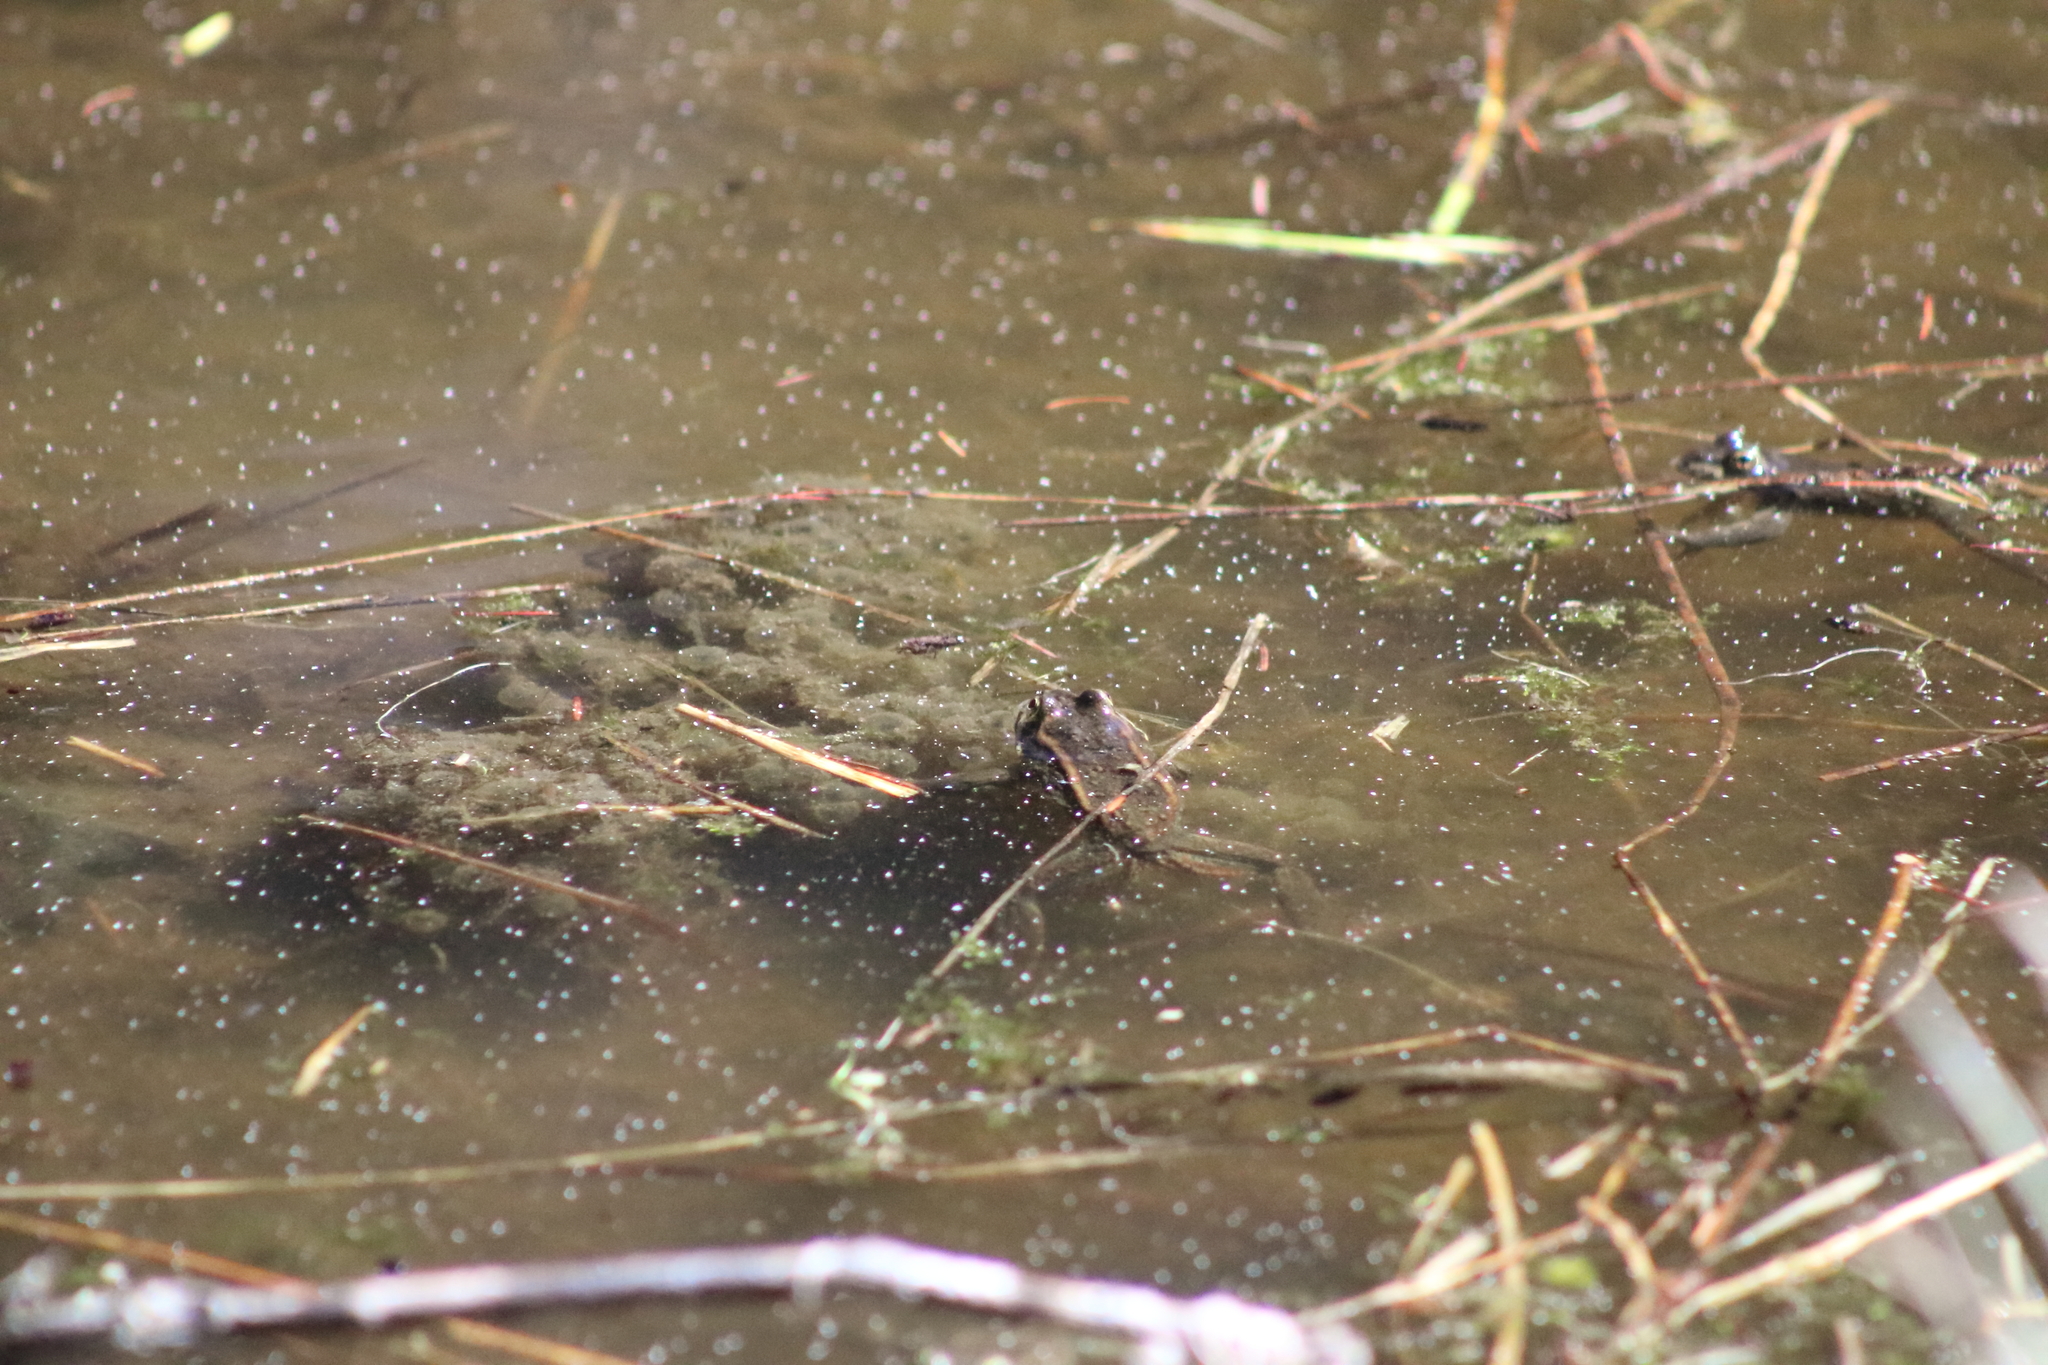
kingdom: Animalia
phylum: Chordata
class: Amphibia
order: Anura
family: Ranidae
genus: Rana
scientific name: Rana luteiventris
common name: Columbia spotted frog
